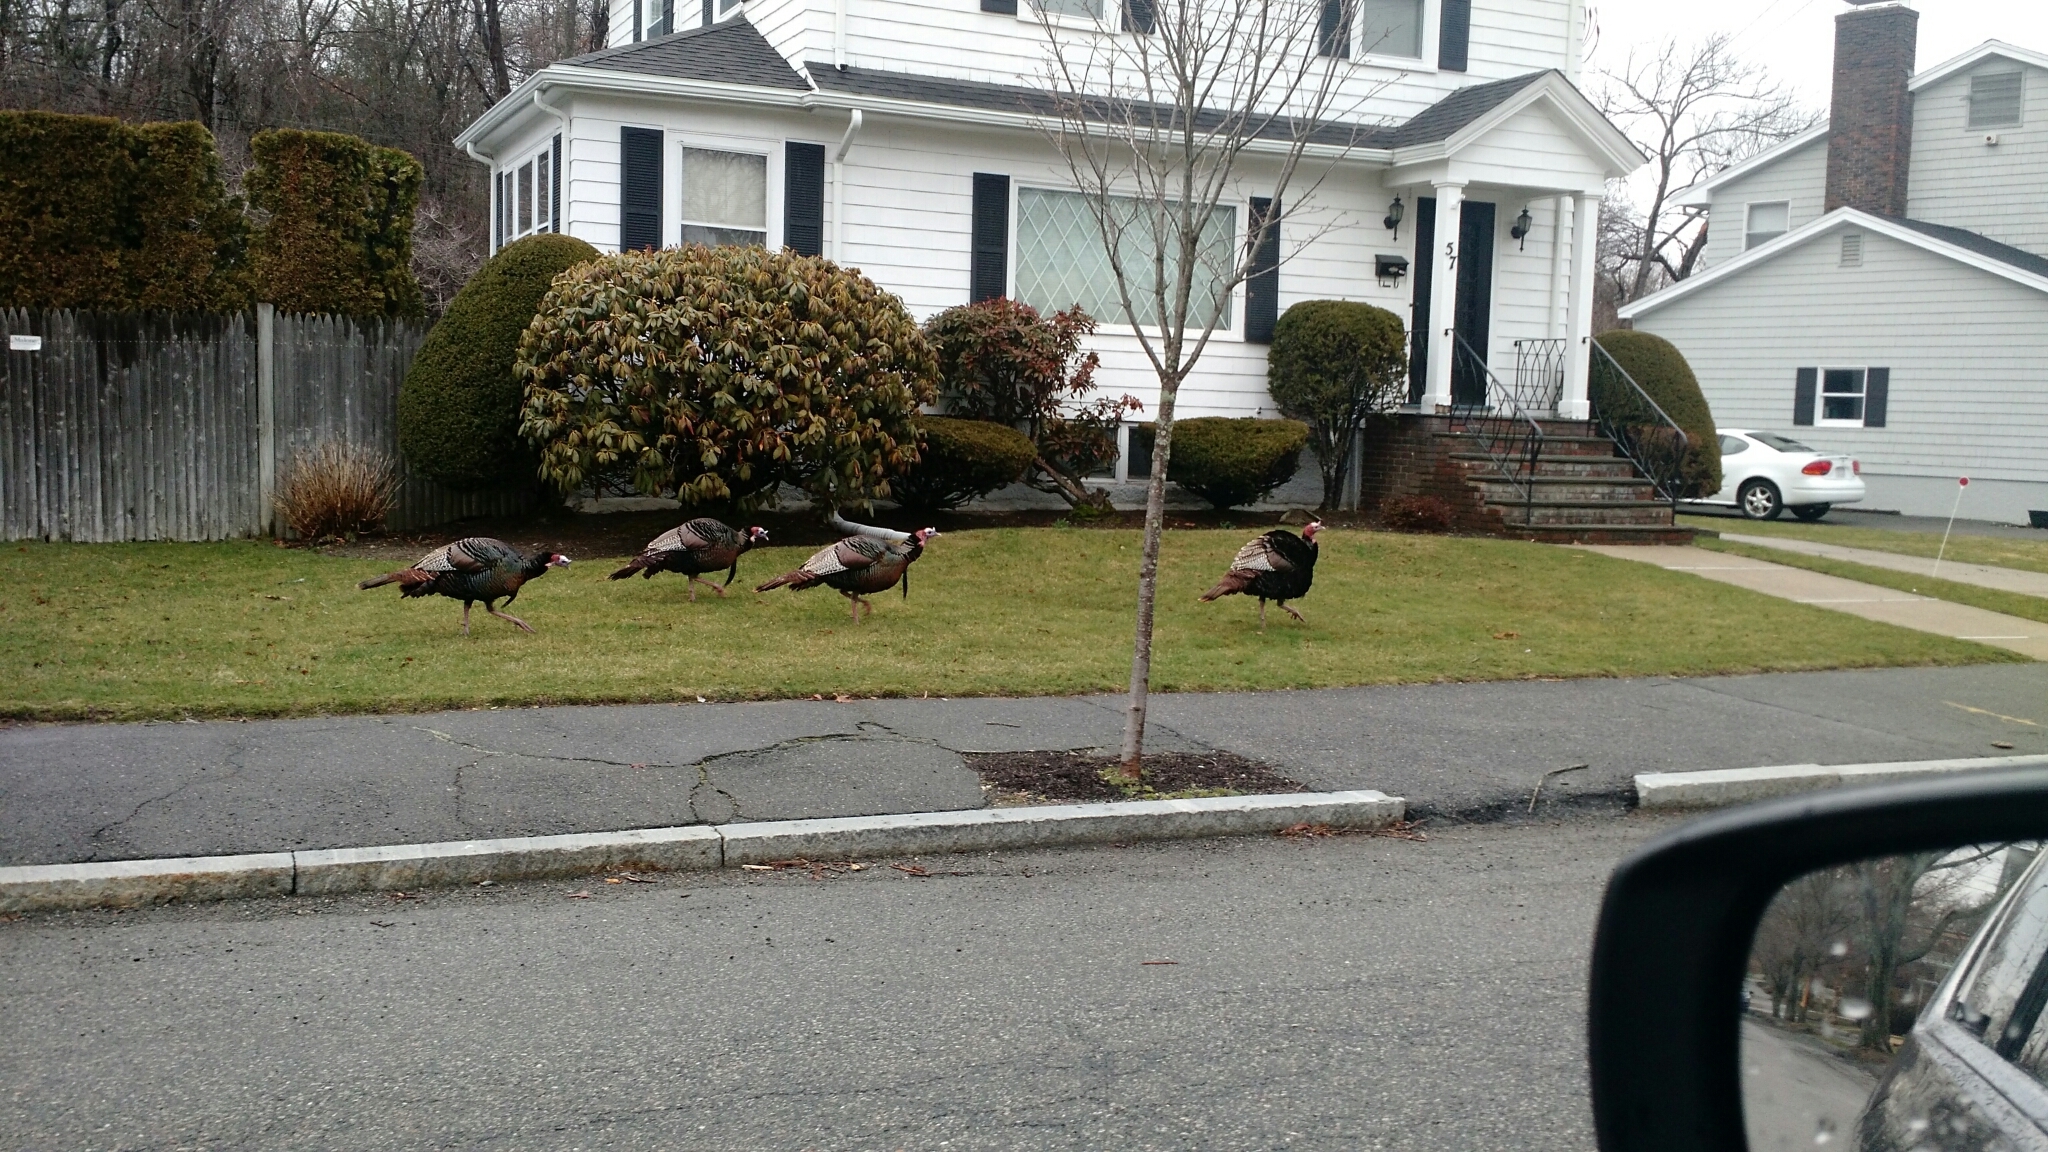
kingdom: Animalia
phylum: Chordata
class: Aves
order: Galliformes
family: Phasianidae
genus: Meleagris
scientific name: Meleagris gallopavo
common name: Wild turkey
